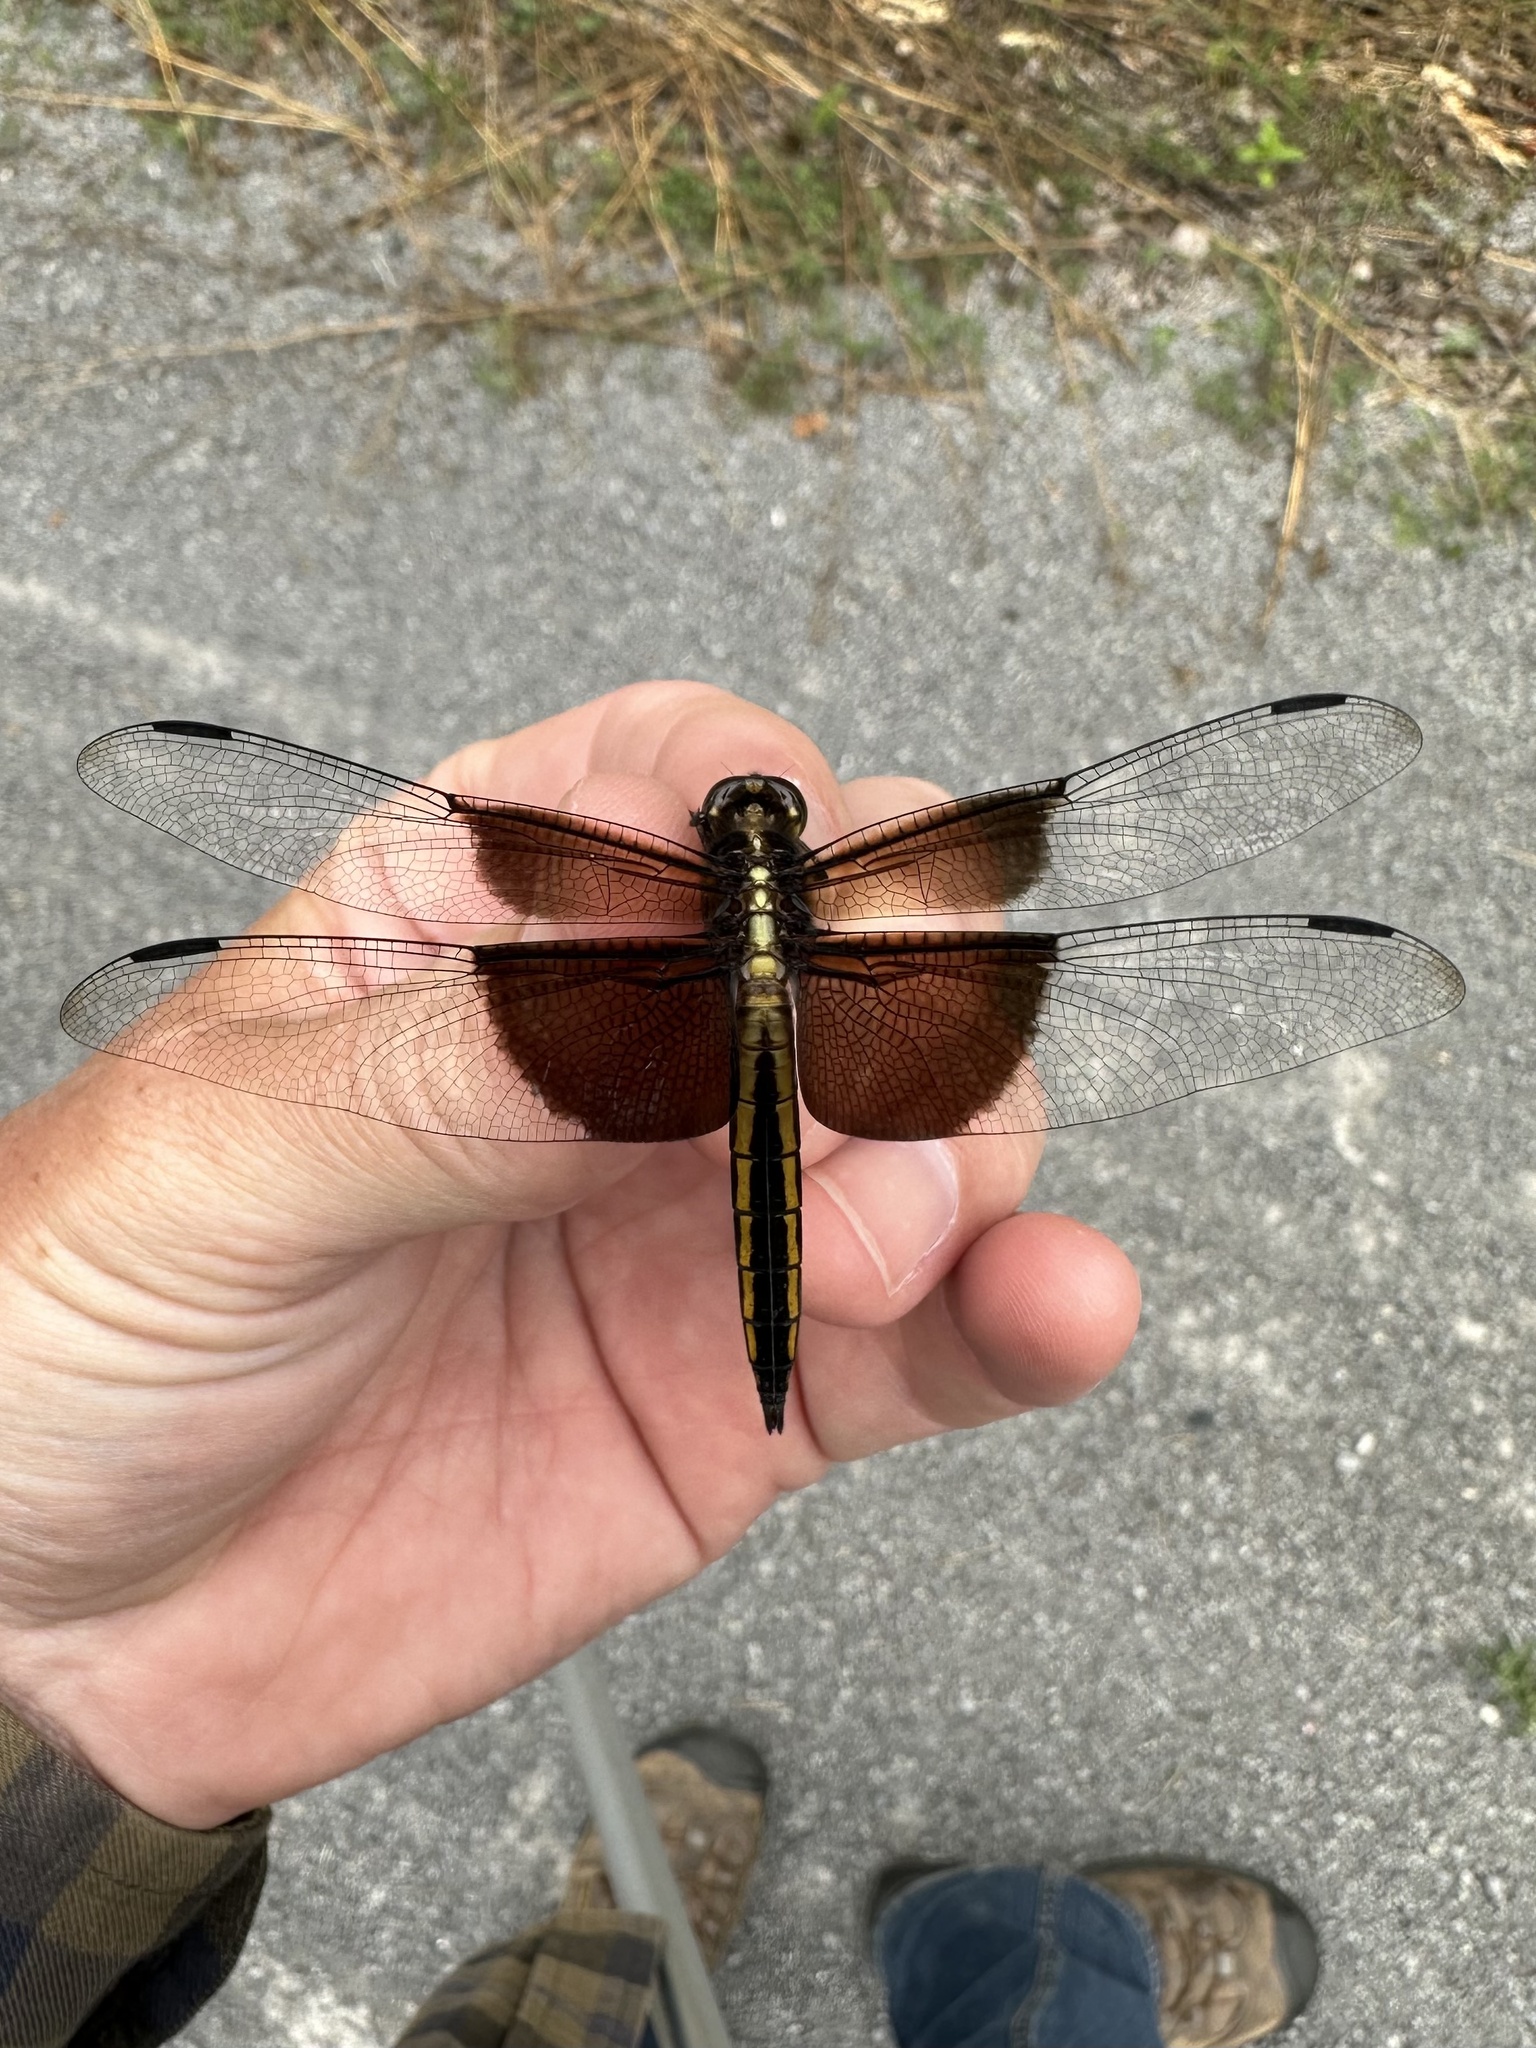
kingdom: Animalia
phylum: Arthropoda
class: Insecta
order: Odonata
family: Libellulidae
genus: Libellula
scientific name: Libellula luctuosa
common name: Widow skimmer
